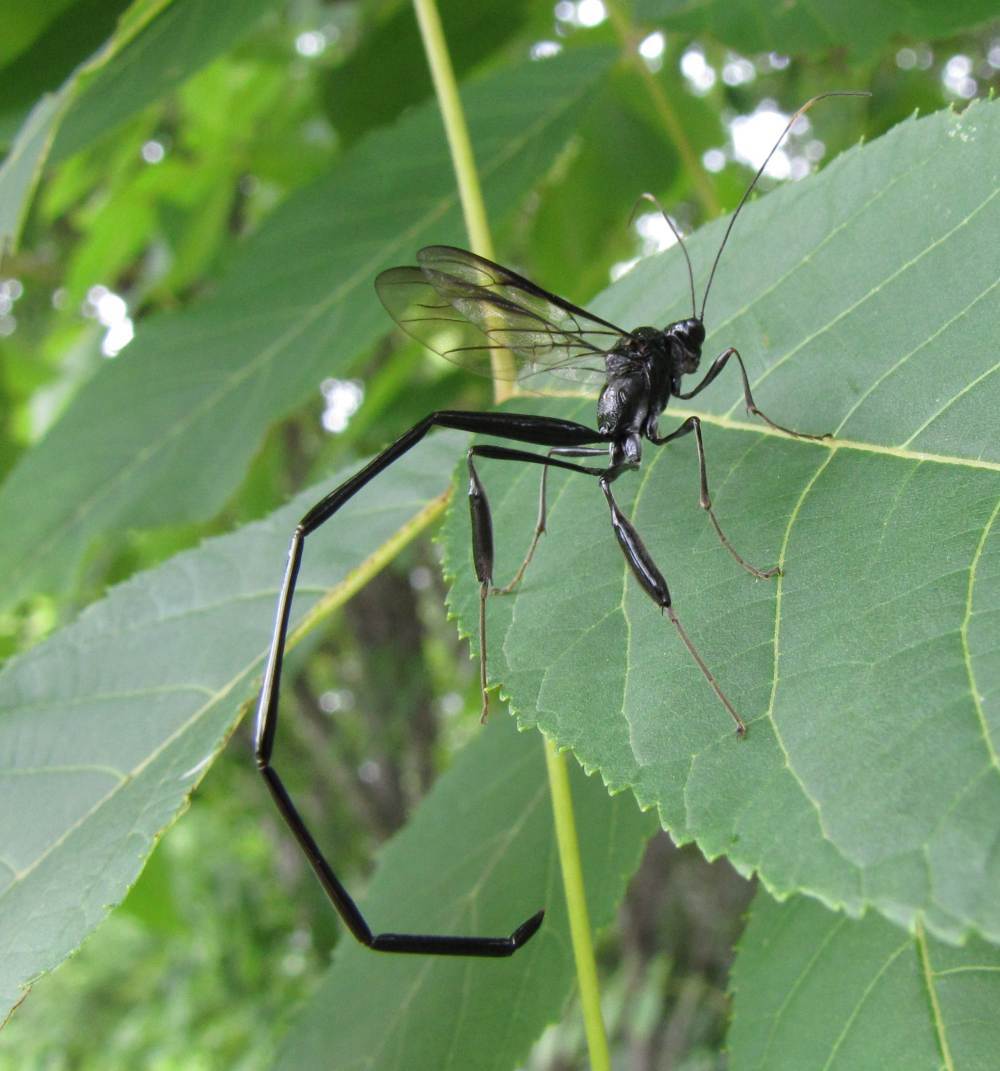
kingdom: Animalia
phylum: Arthropoda
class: Insecta
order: Hymenoptera
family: Pelecinidae
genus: Pelecinus
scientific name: Pelecinus polyturator
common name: American pelecinid wasp
